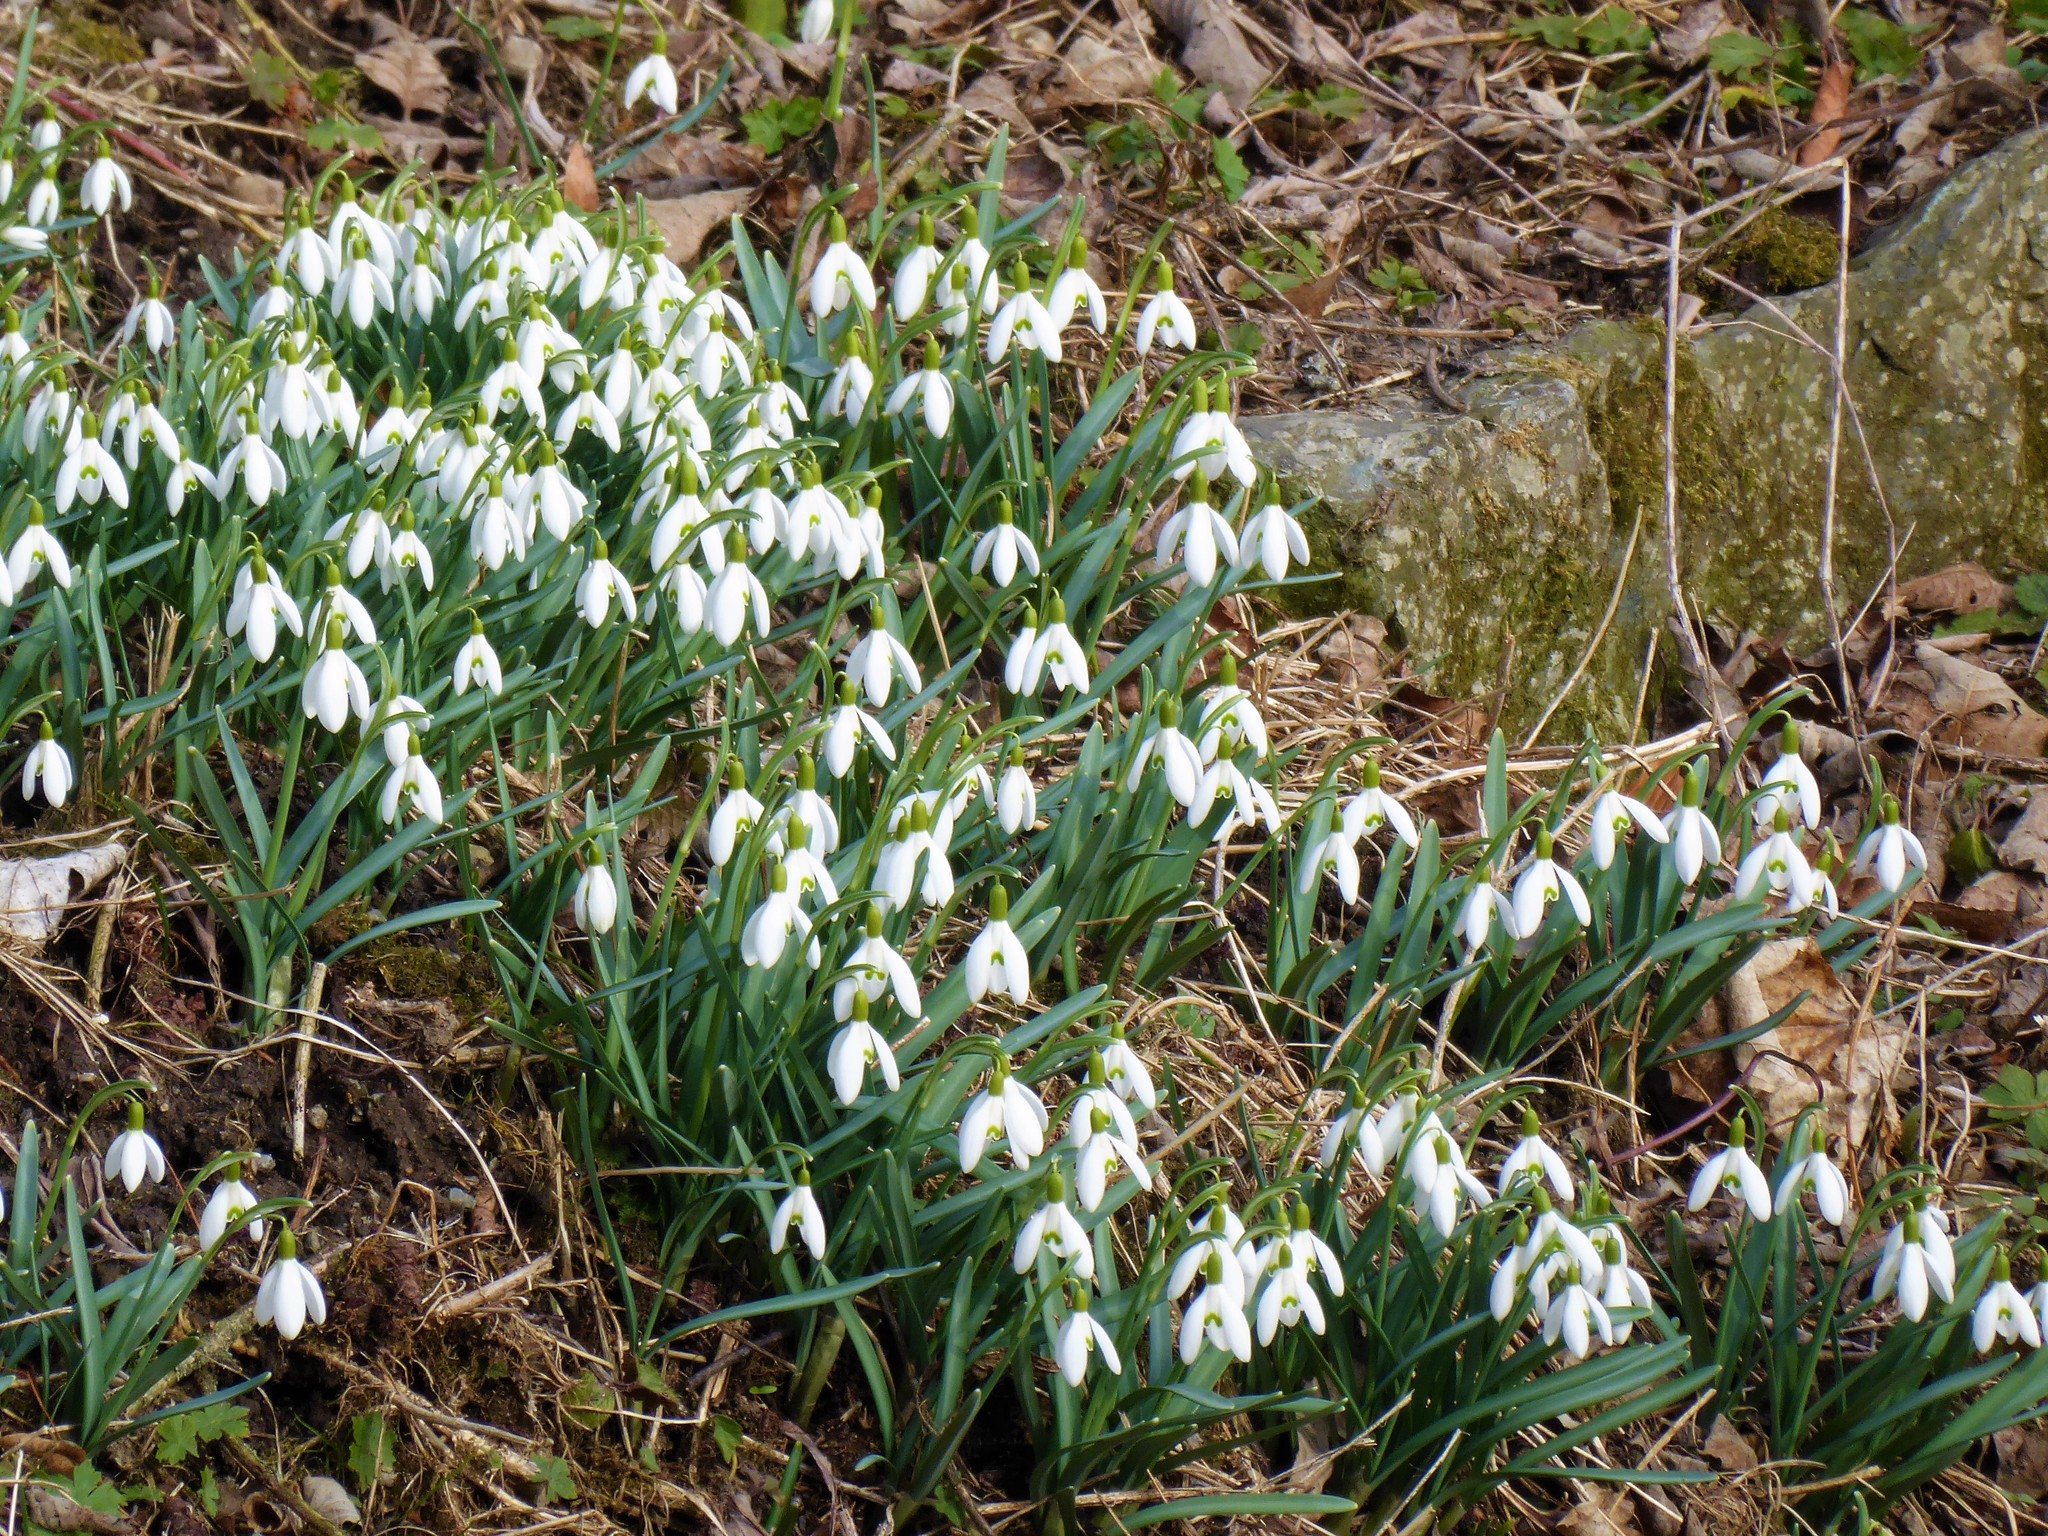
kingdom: Plantae
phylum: Tracheophyta
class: Liliopsida
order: Asparagales
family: Amaryllidaceae
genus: Galanthus
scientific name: Galanthus nivalis
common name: Snowdrop
